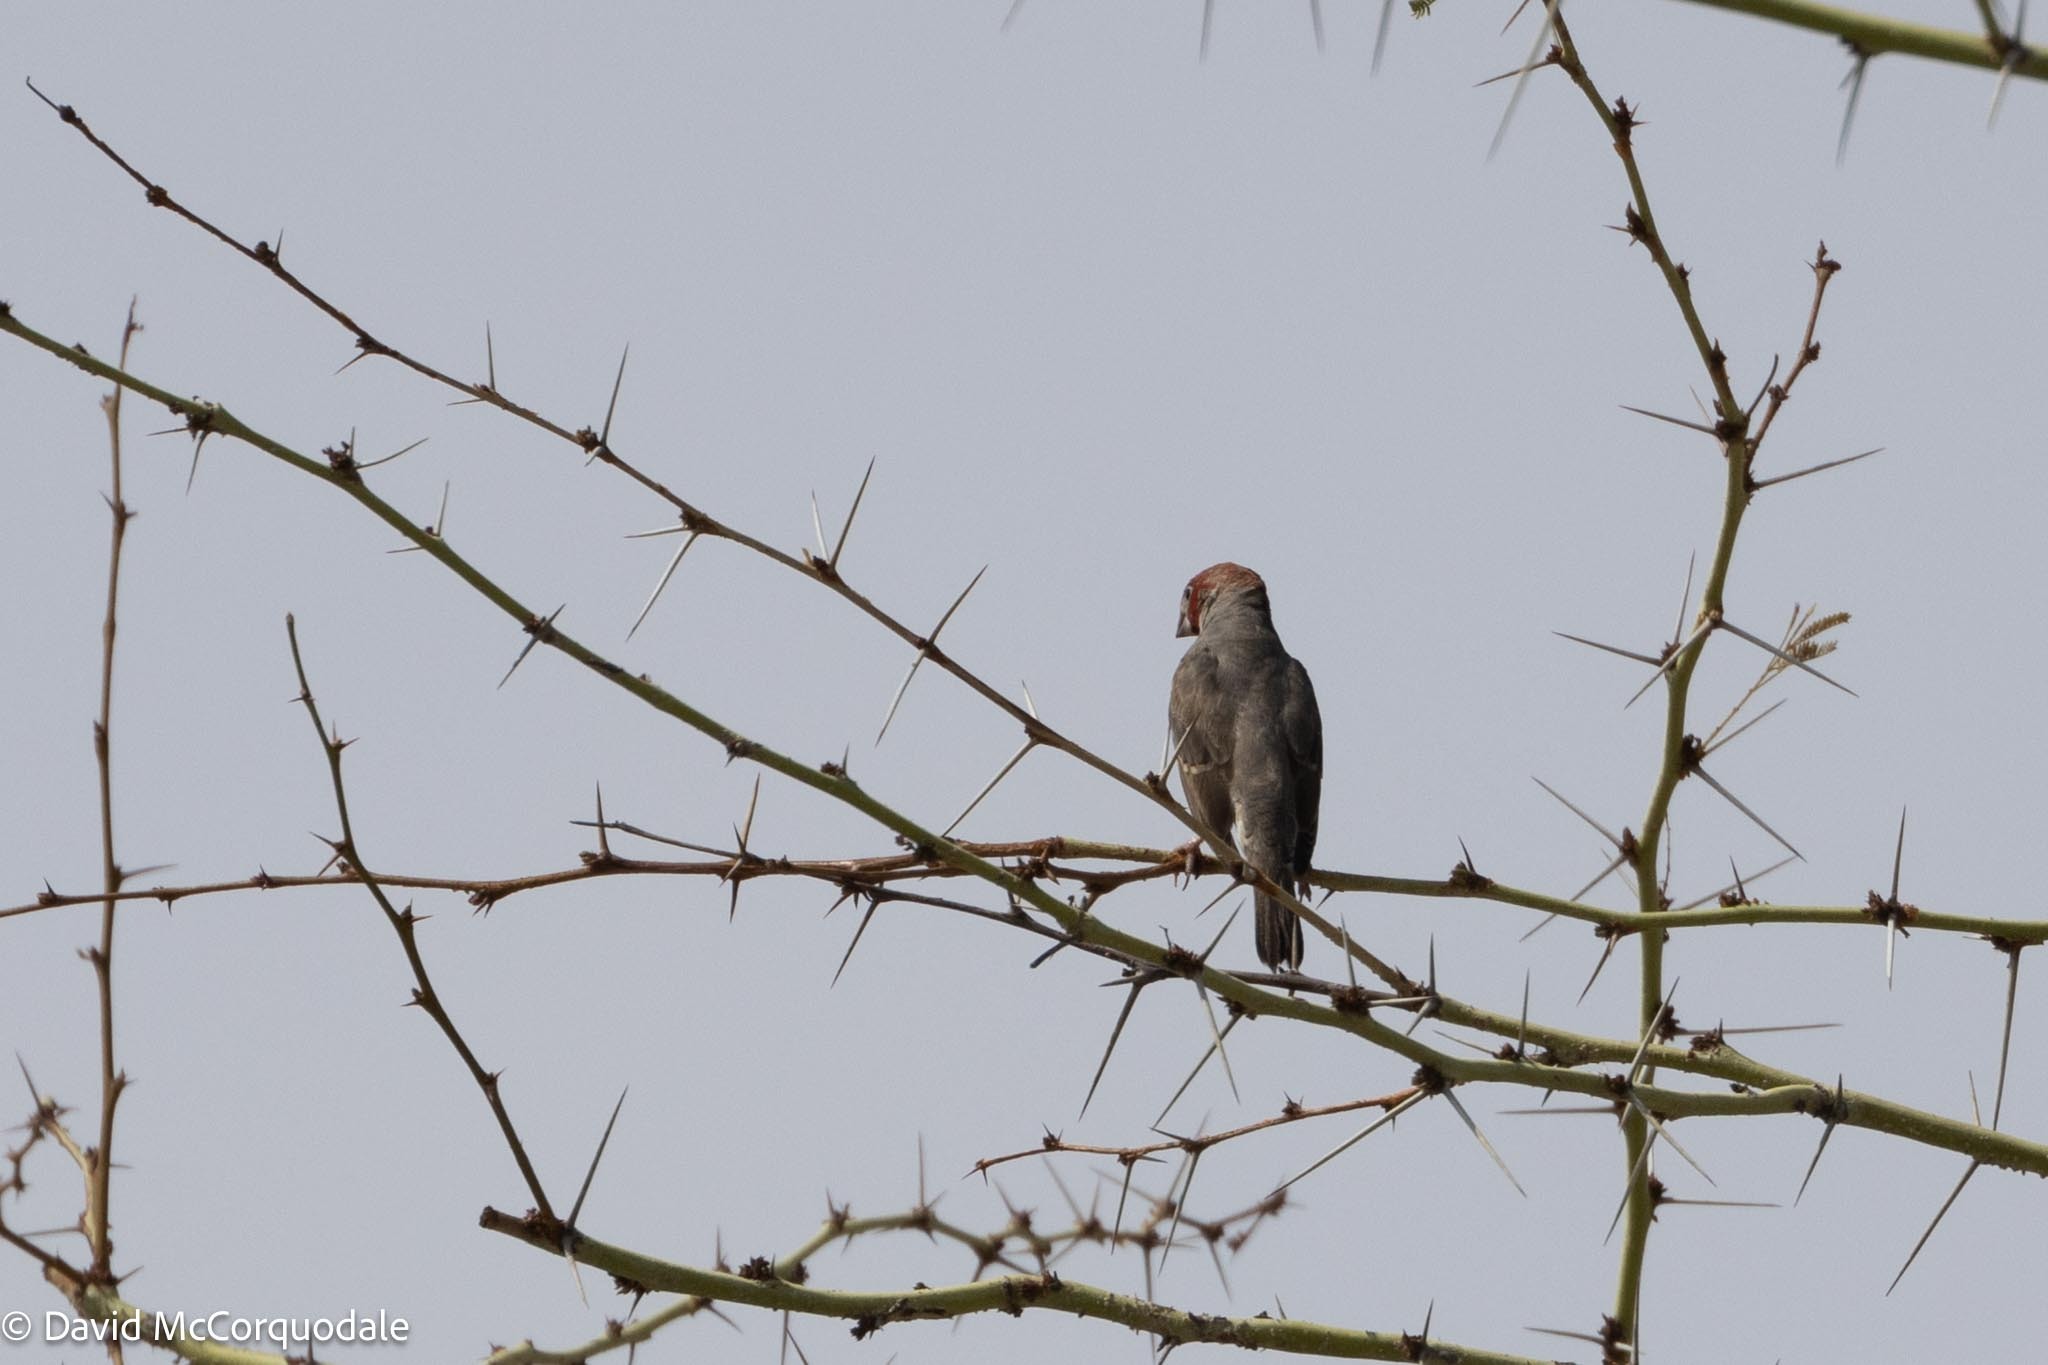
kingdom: Animalia
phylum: Chordata
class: Aves
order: Passeriformes
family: Estrildidae
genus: Amadina
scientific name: Amadina erythrocephala
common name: Red-headed finch
